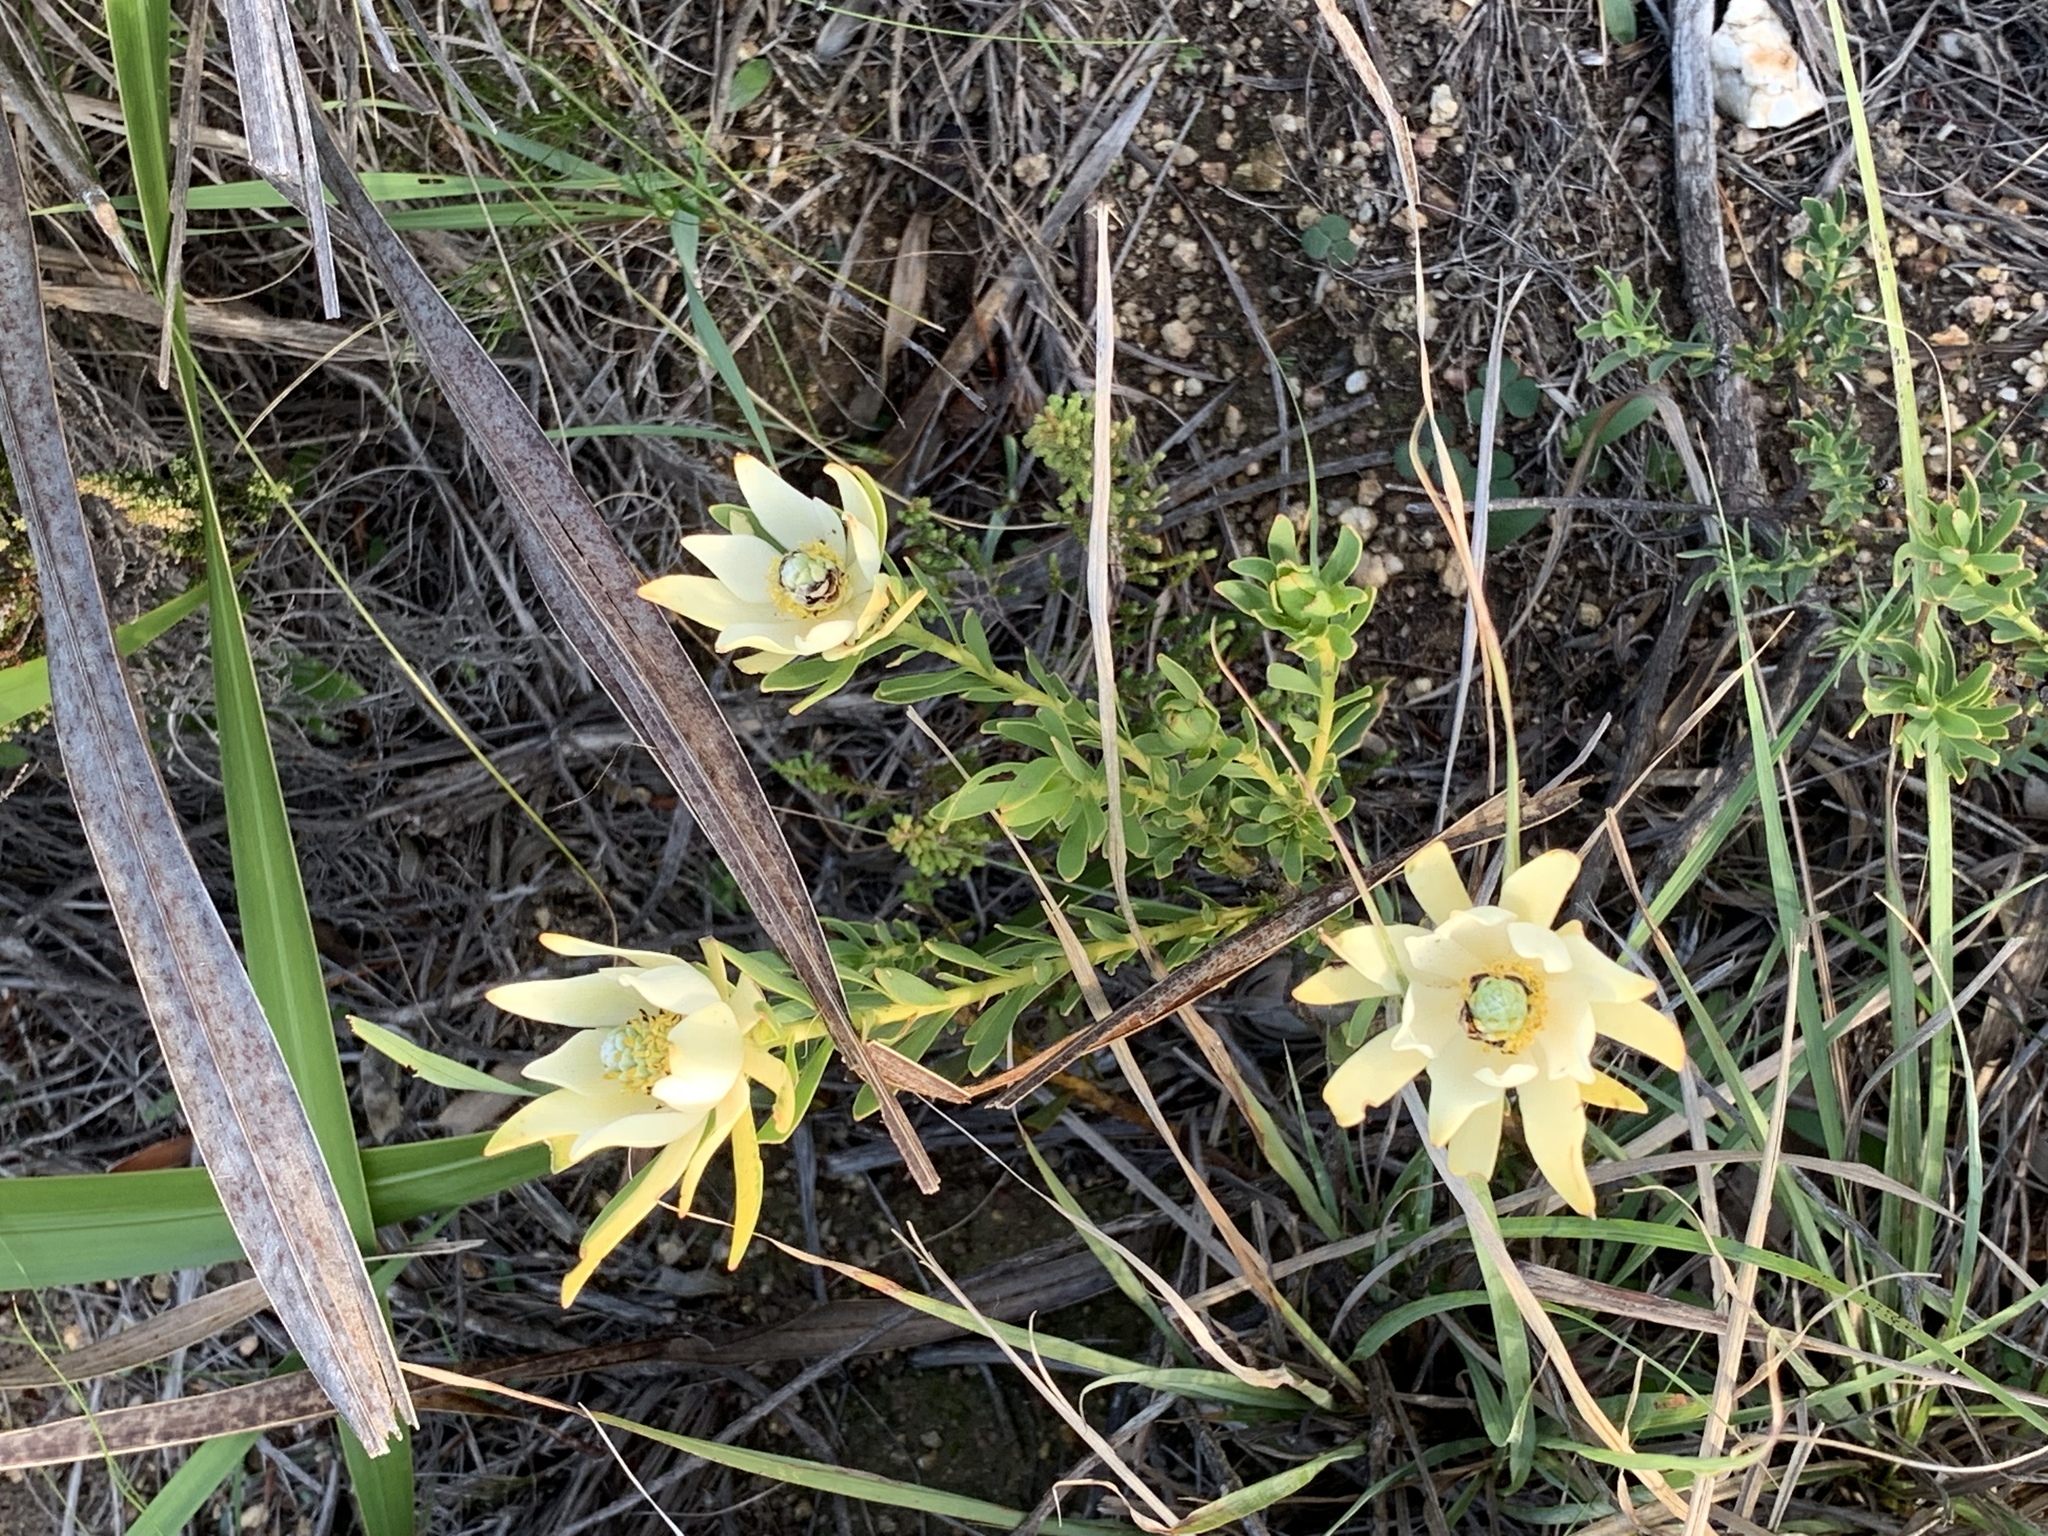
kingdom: Plantae
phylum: Tracheophyta
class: Magnoliopsida
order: Proteales
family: Proteaceae
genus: Leucadendron
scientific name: Leucadendron salignum
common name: Common sunshine conebush
